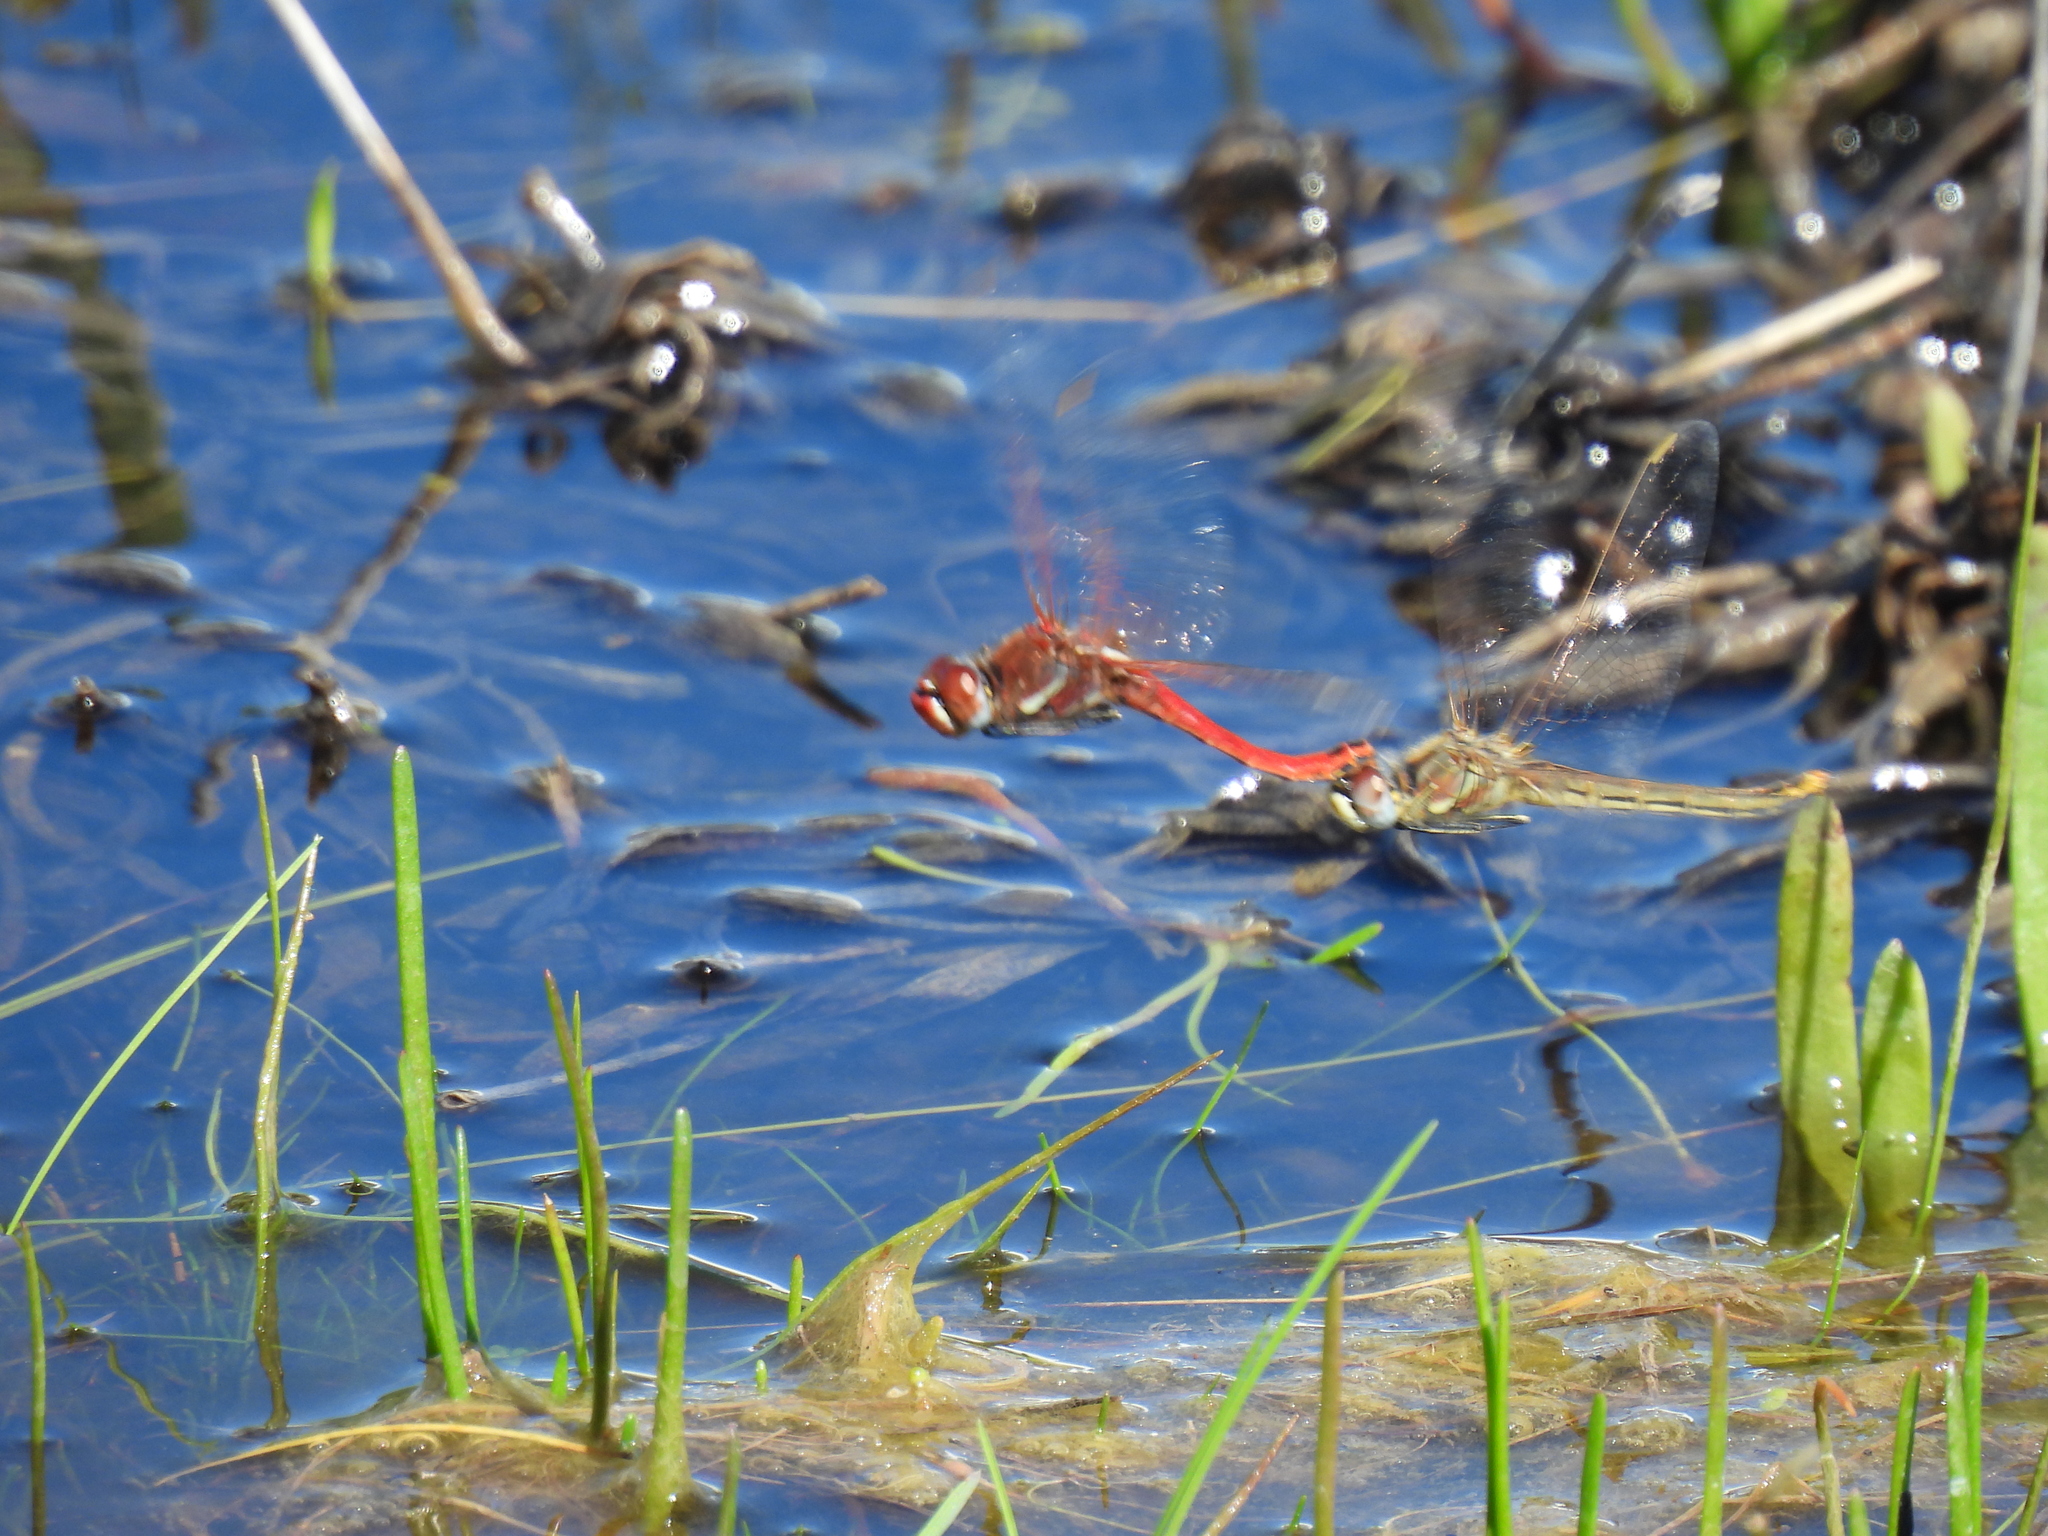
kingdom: Animalia
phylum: Arthropoda
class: Insecta
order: Odonata
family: Libellulidae
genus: Sympetrum
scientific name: Sympetrum fonscolombii
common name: Red-veined darter
